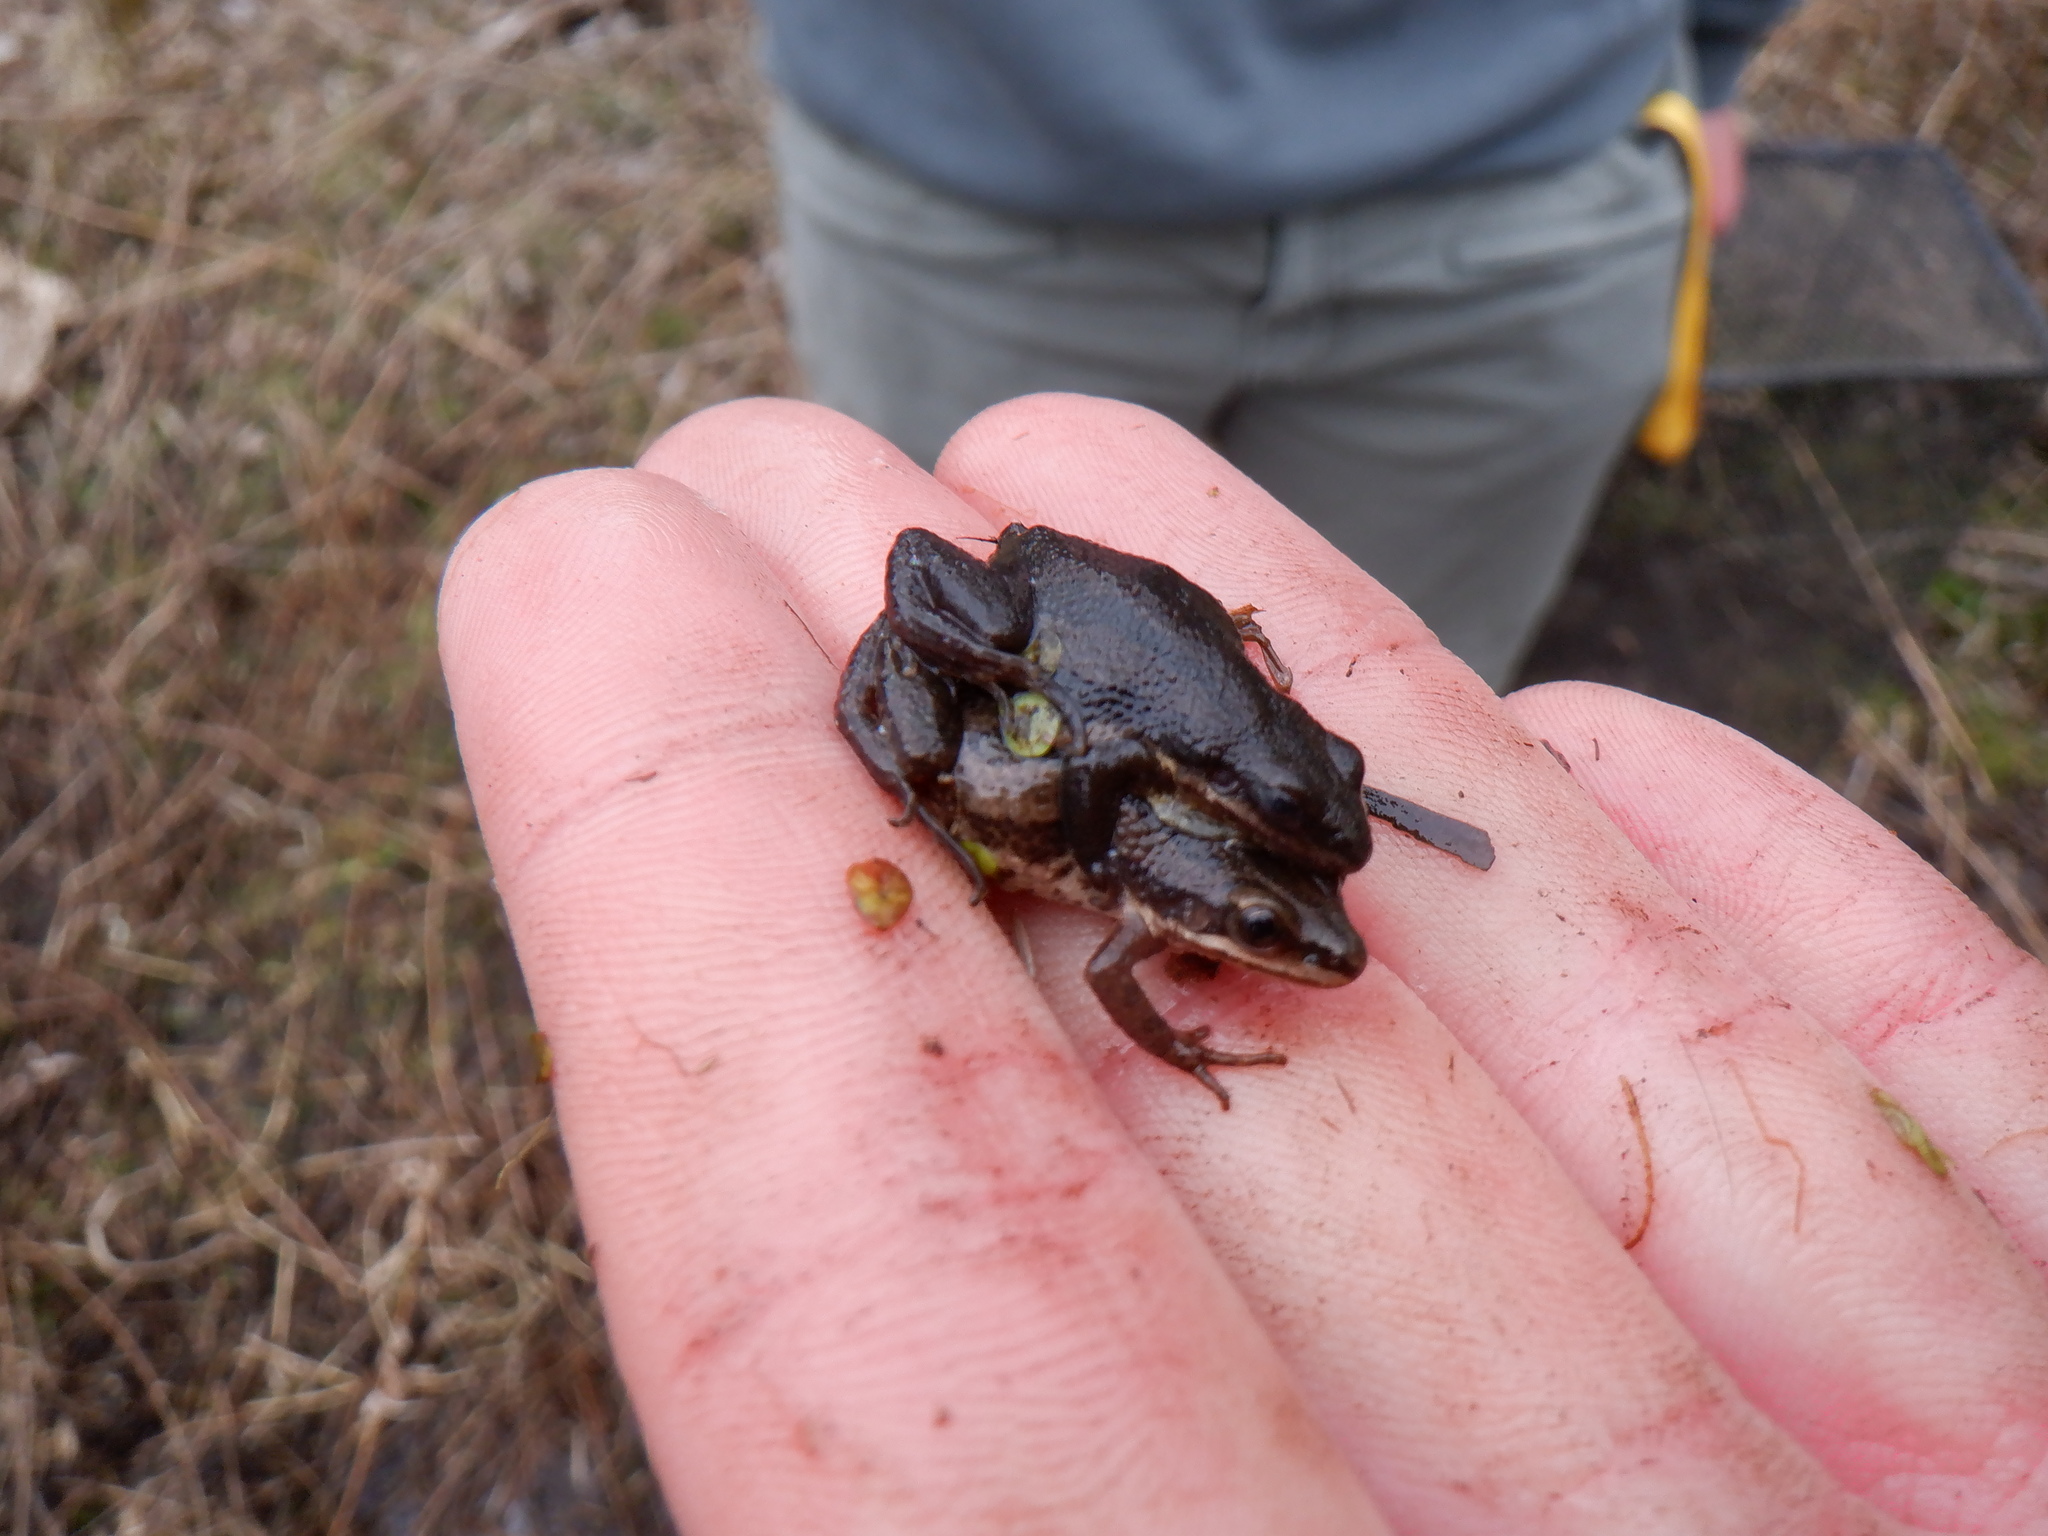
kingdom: Animalia
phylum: Chordata
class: Amphibia
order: Anura
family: Hylidae
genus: Pseudacris
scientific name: Pseudacris maculata
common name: Boreal chorus frog
